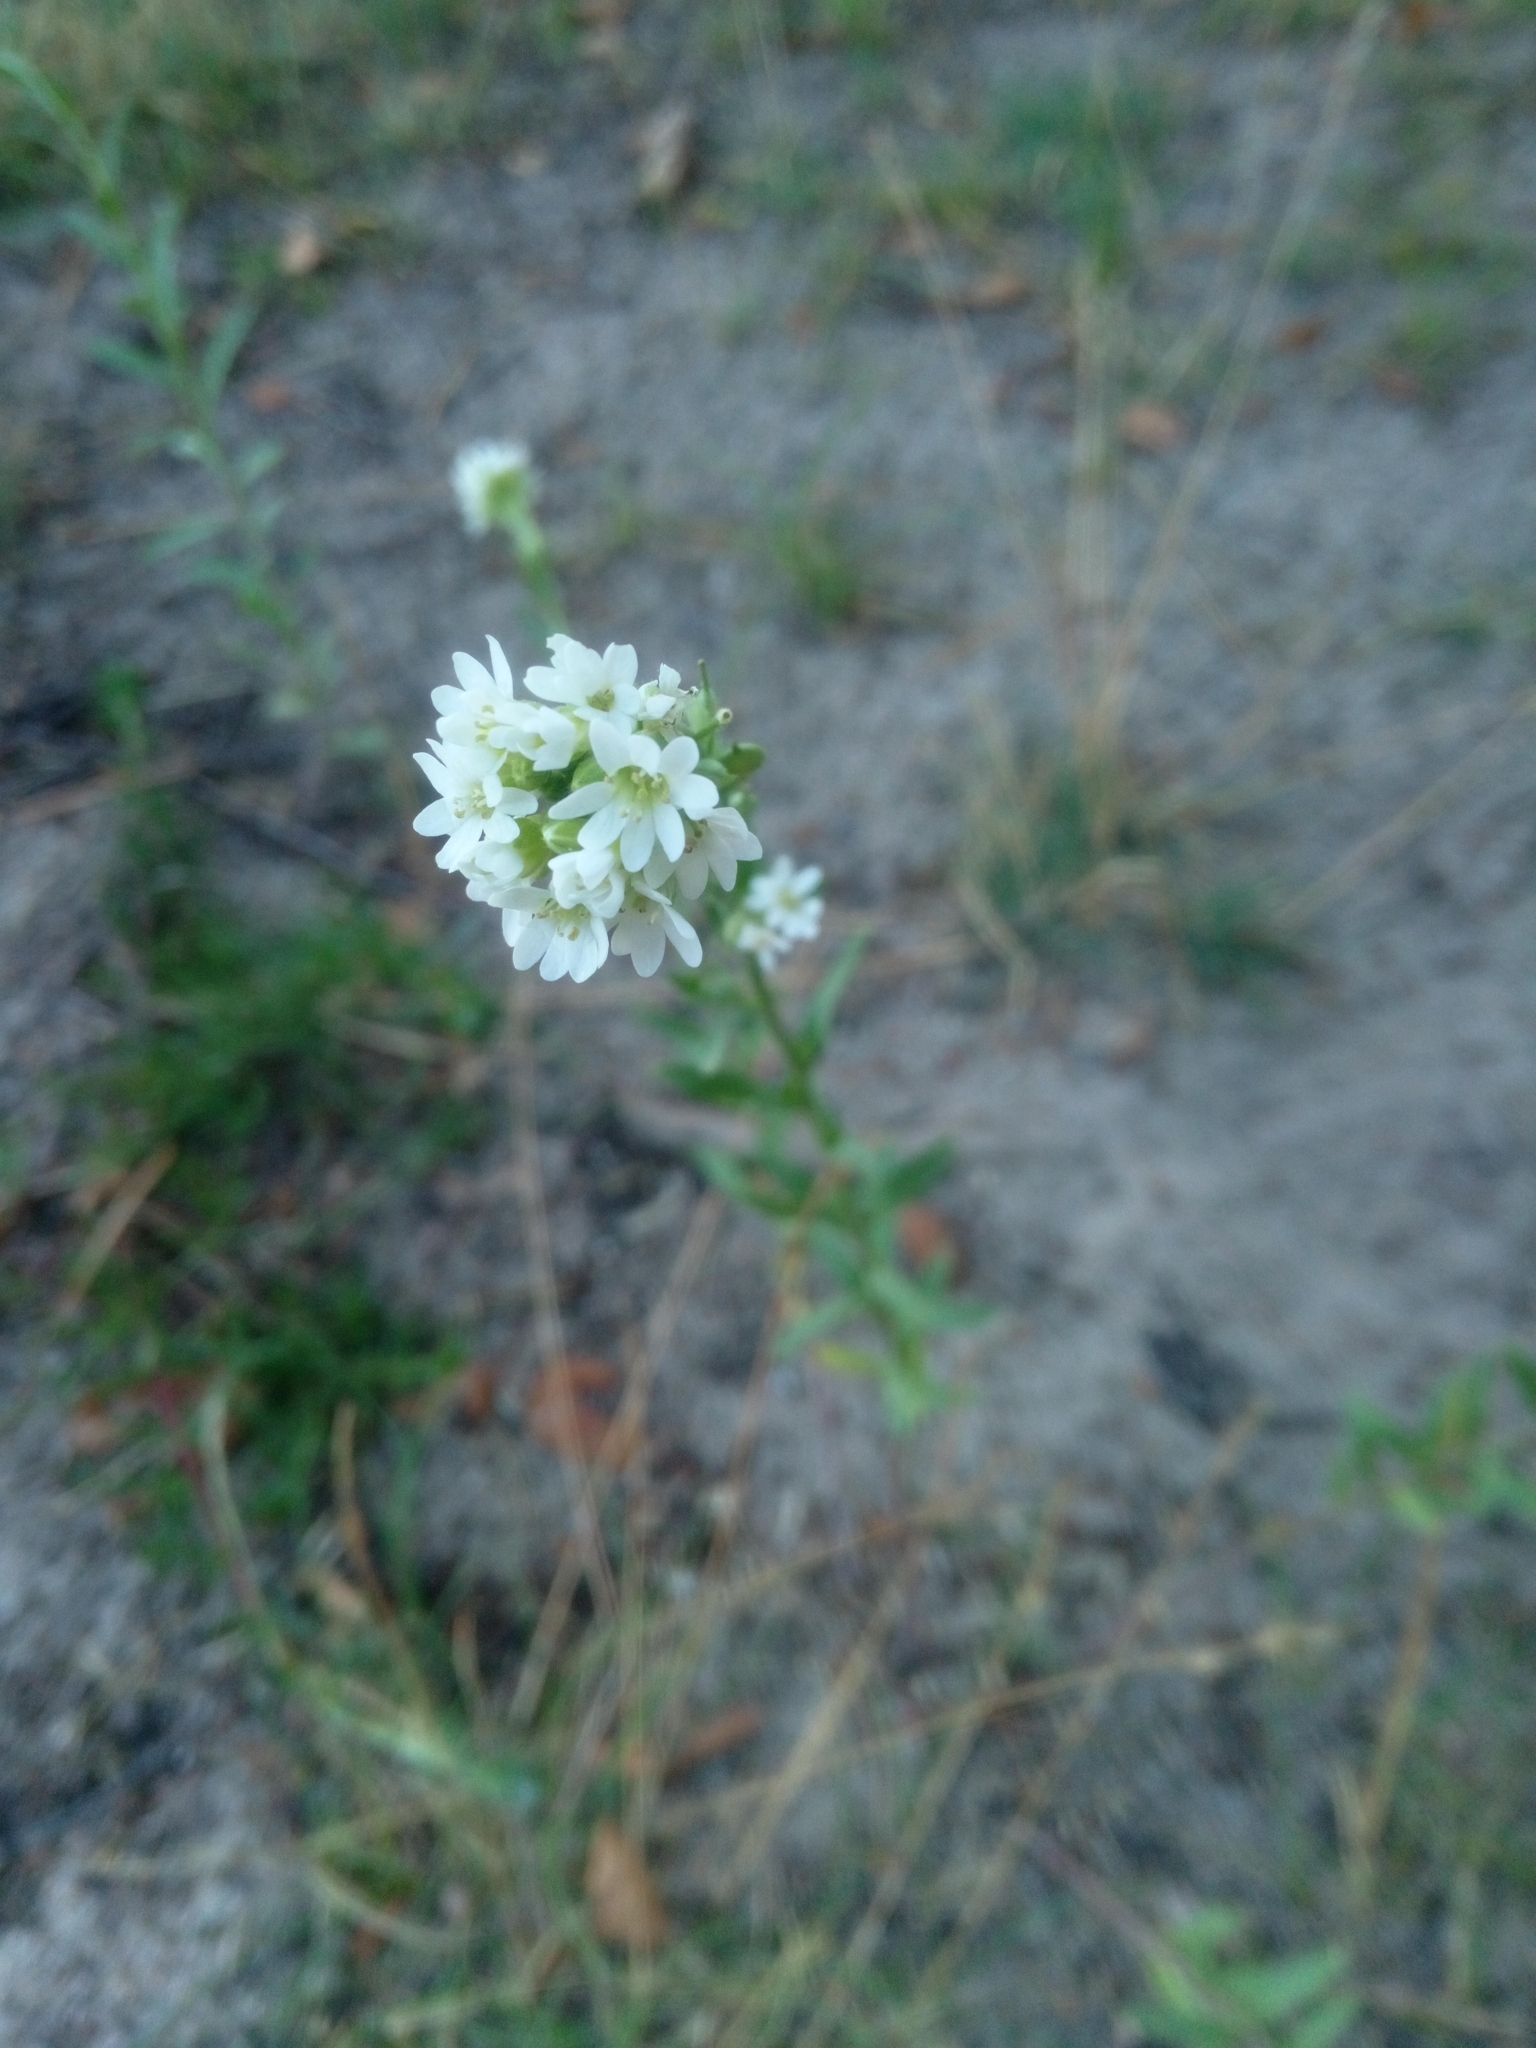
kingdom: Plantae
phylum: Tracheophyta
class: Magnoliopsida
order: Brassicales
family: Brassicaceae
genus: Berteroa
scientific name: Berteroa incana
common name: Hoary alison
